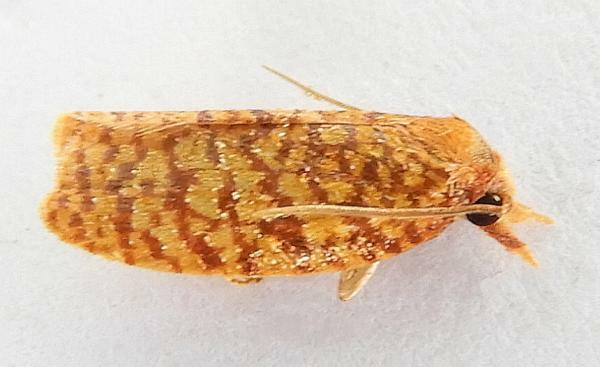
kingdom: Animalia
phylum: Arthropoda
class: Insecta
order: Lepidoptera
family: Tortricidae
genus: Sparganothis
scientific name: Sparganothis niteolinea
